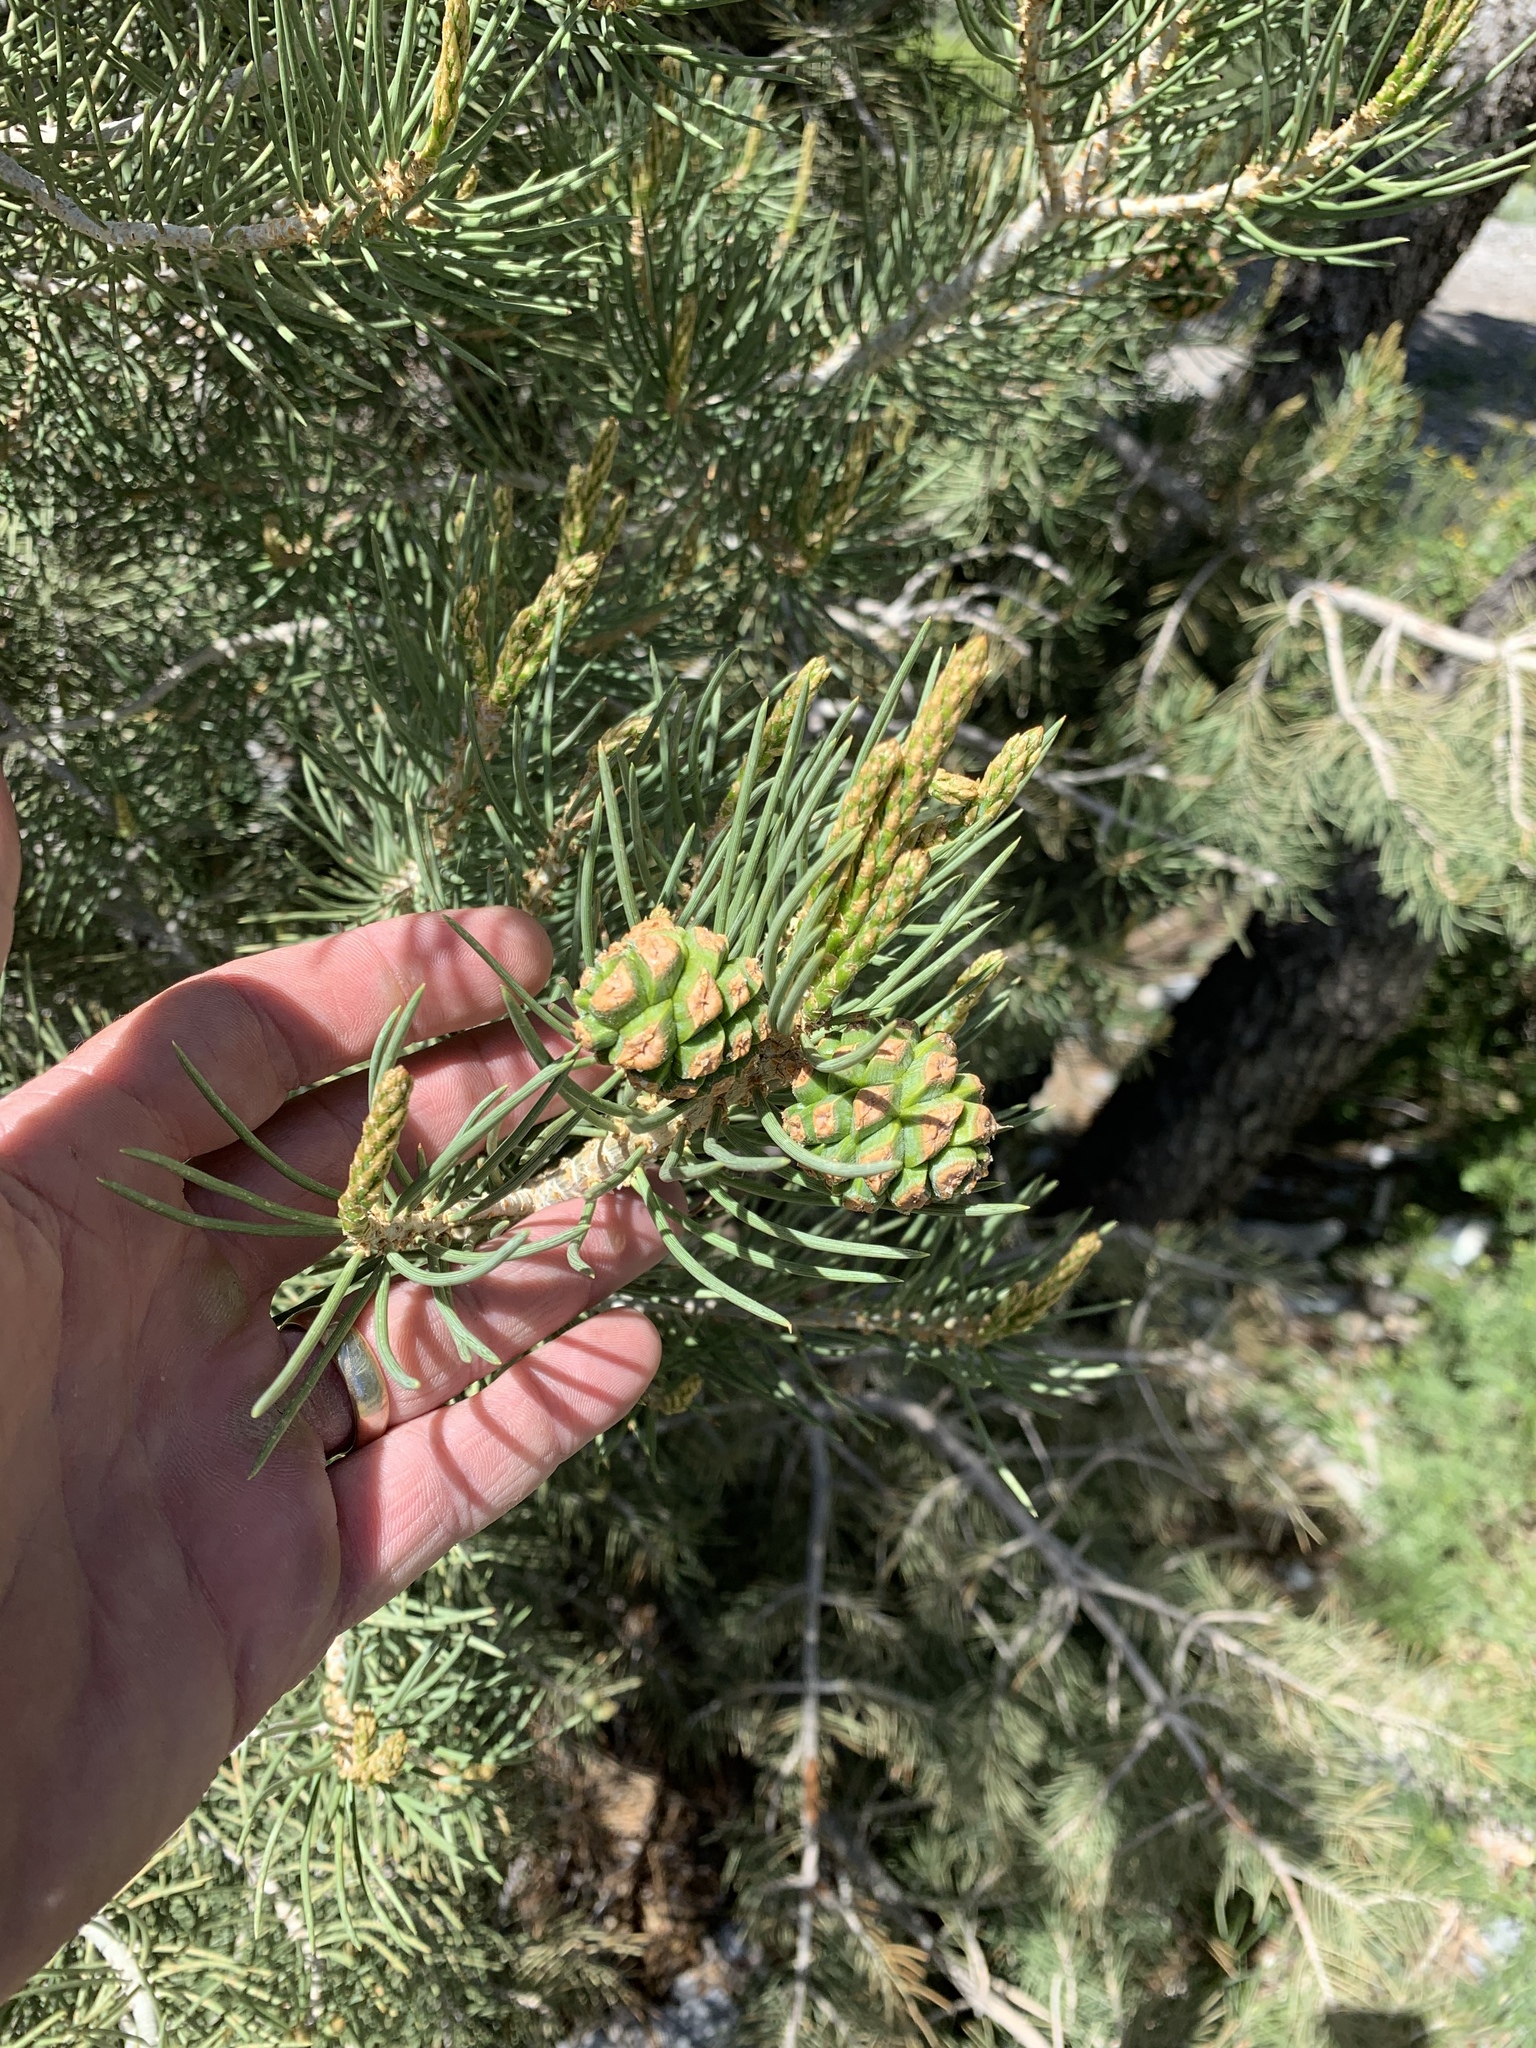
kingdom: Plantae
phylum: Tracheophyta
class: Pinopsida
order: Pinales
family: Pinaceae
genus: Pinus
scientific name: Pinus monophylla
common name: One-leaved nut pine
